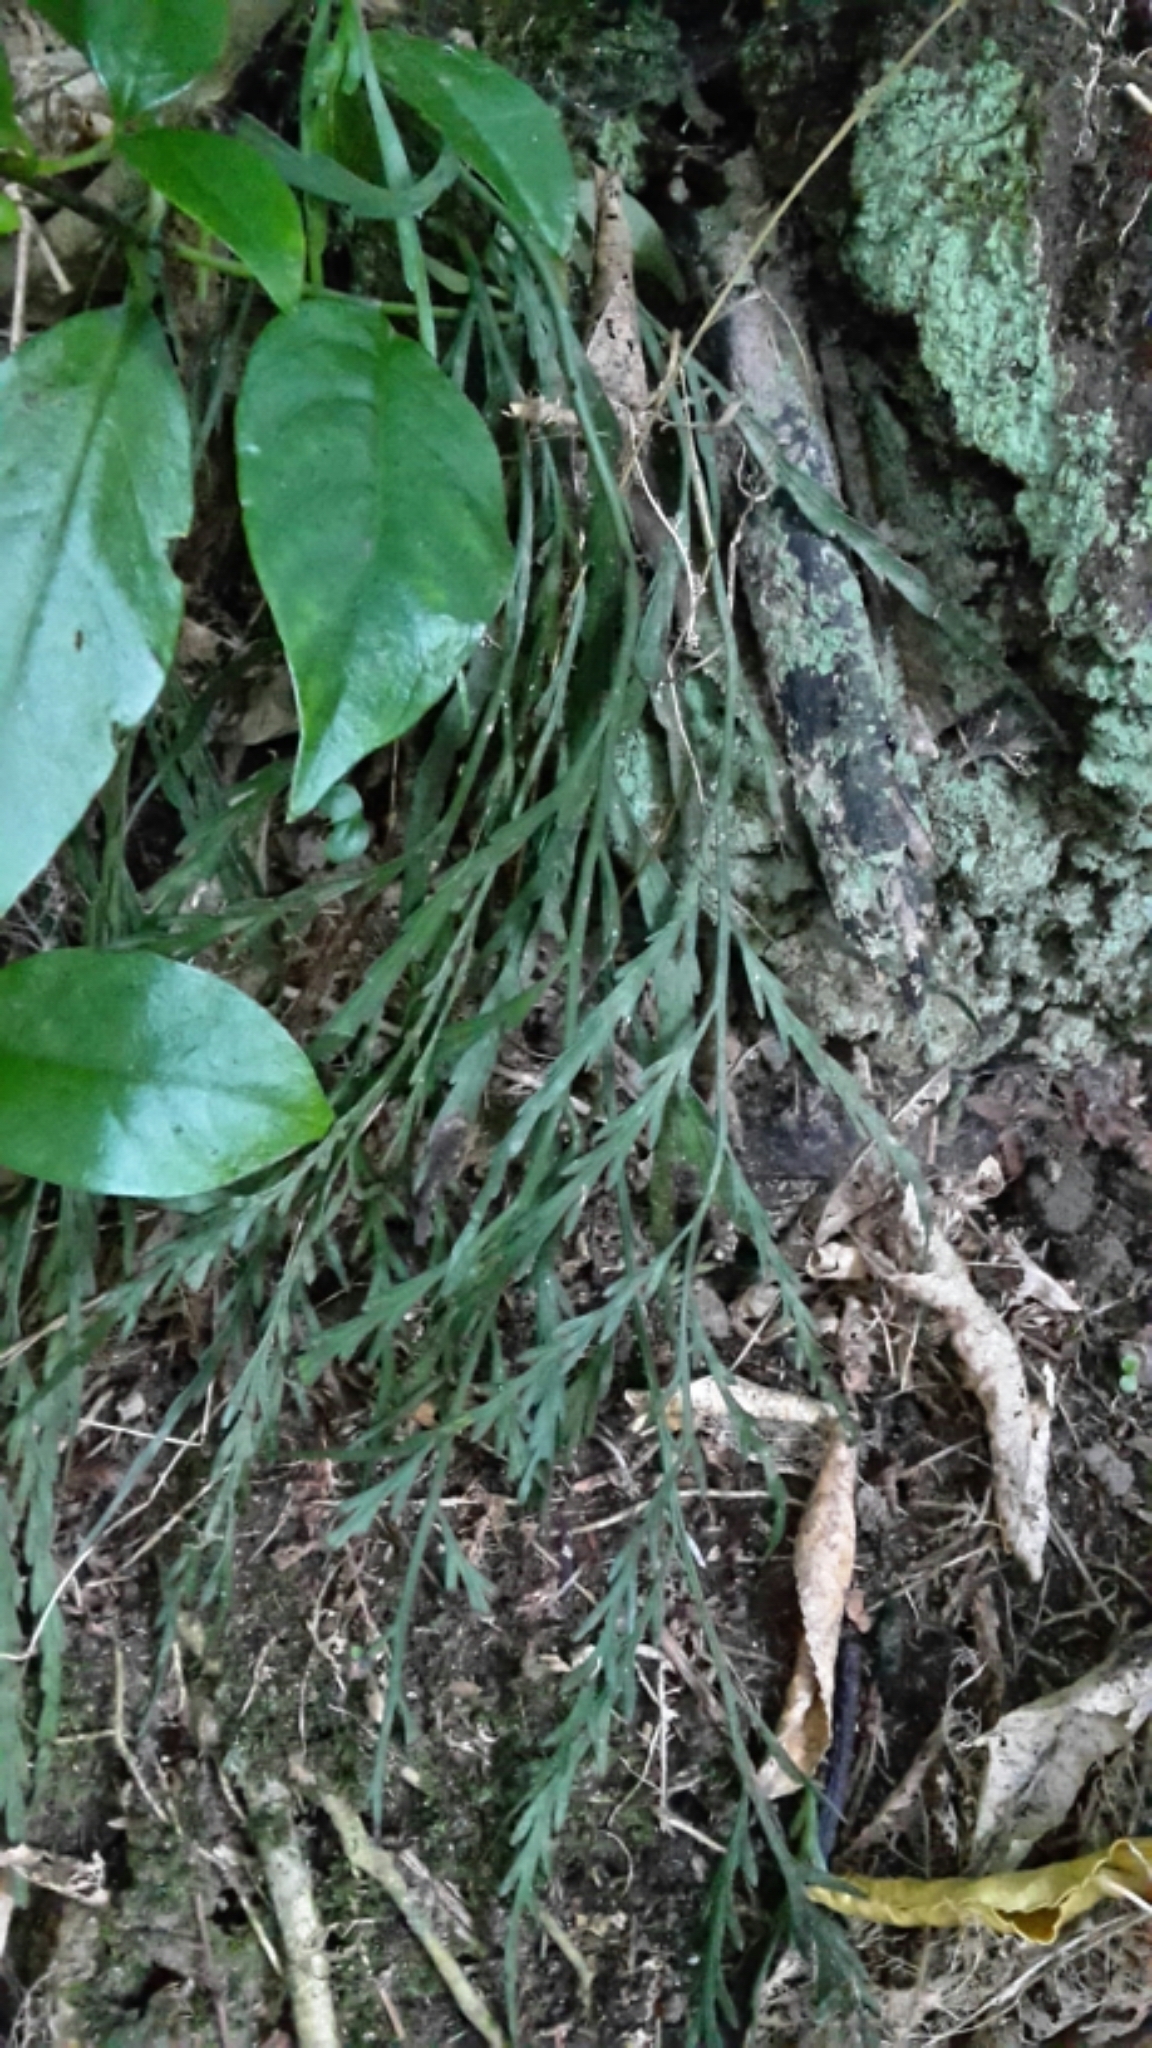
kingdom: Plantae
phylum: Tracheophyta
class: Polypodiopsida
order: Polypodiales
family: Aspleniaceae
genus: Asplenium
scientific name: Asplenium flaccidum
